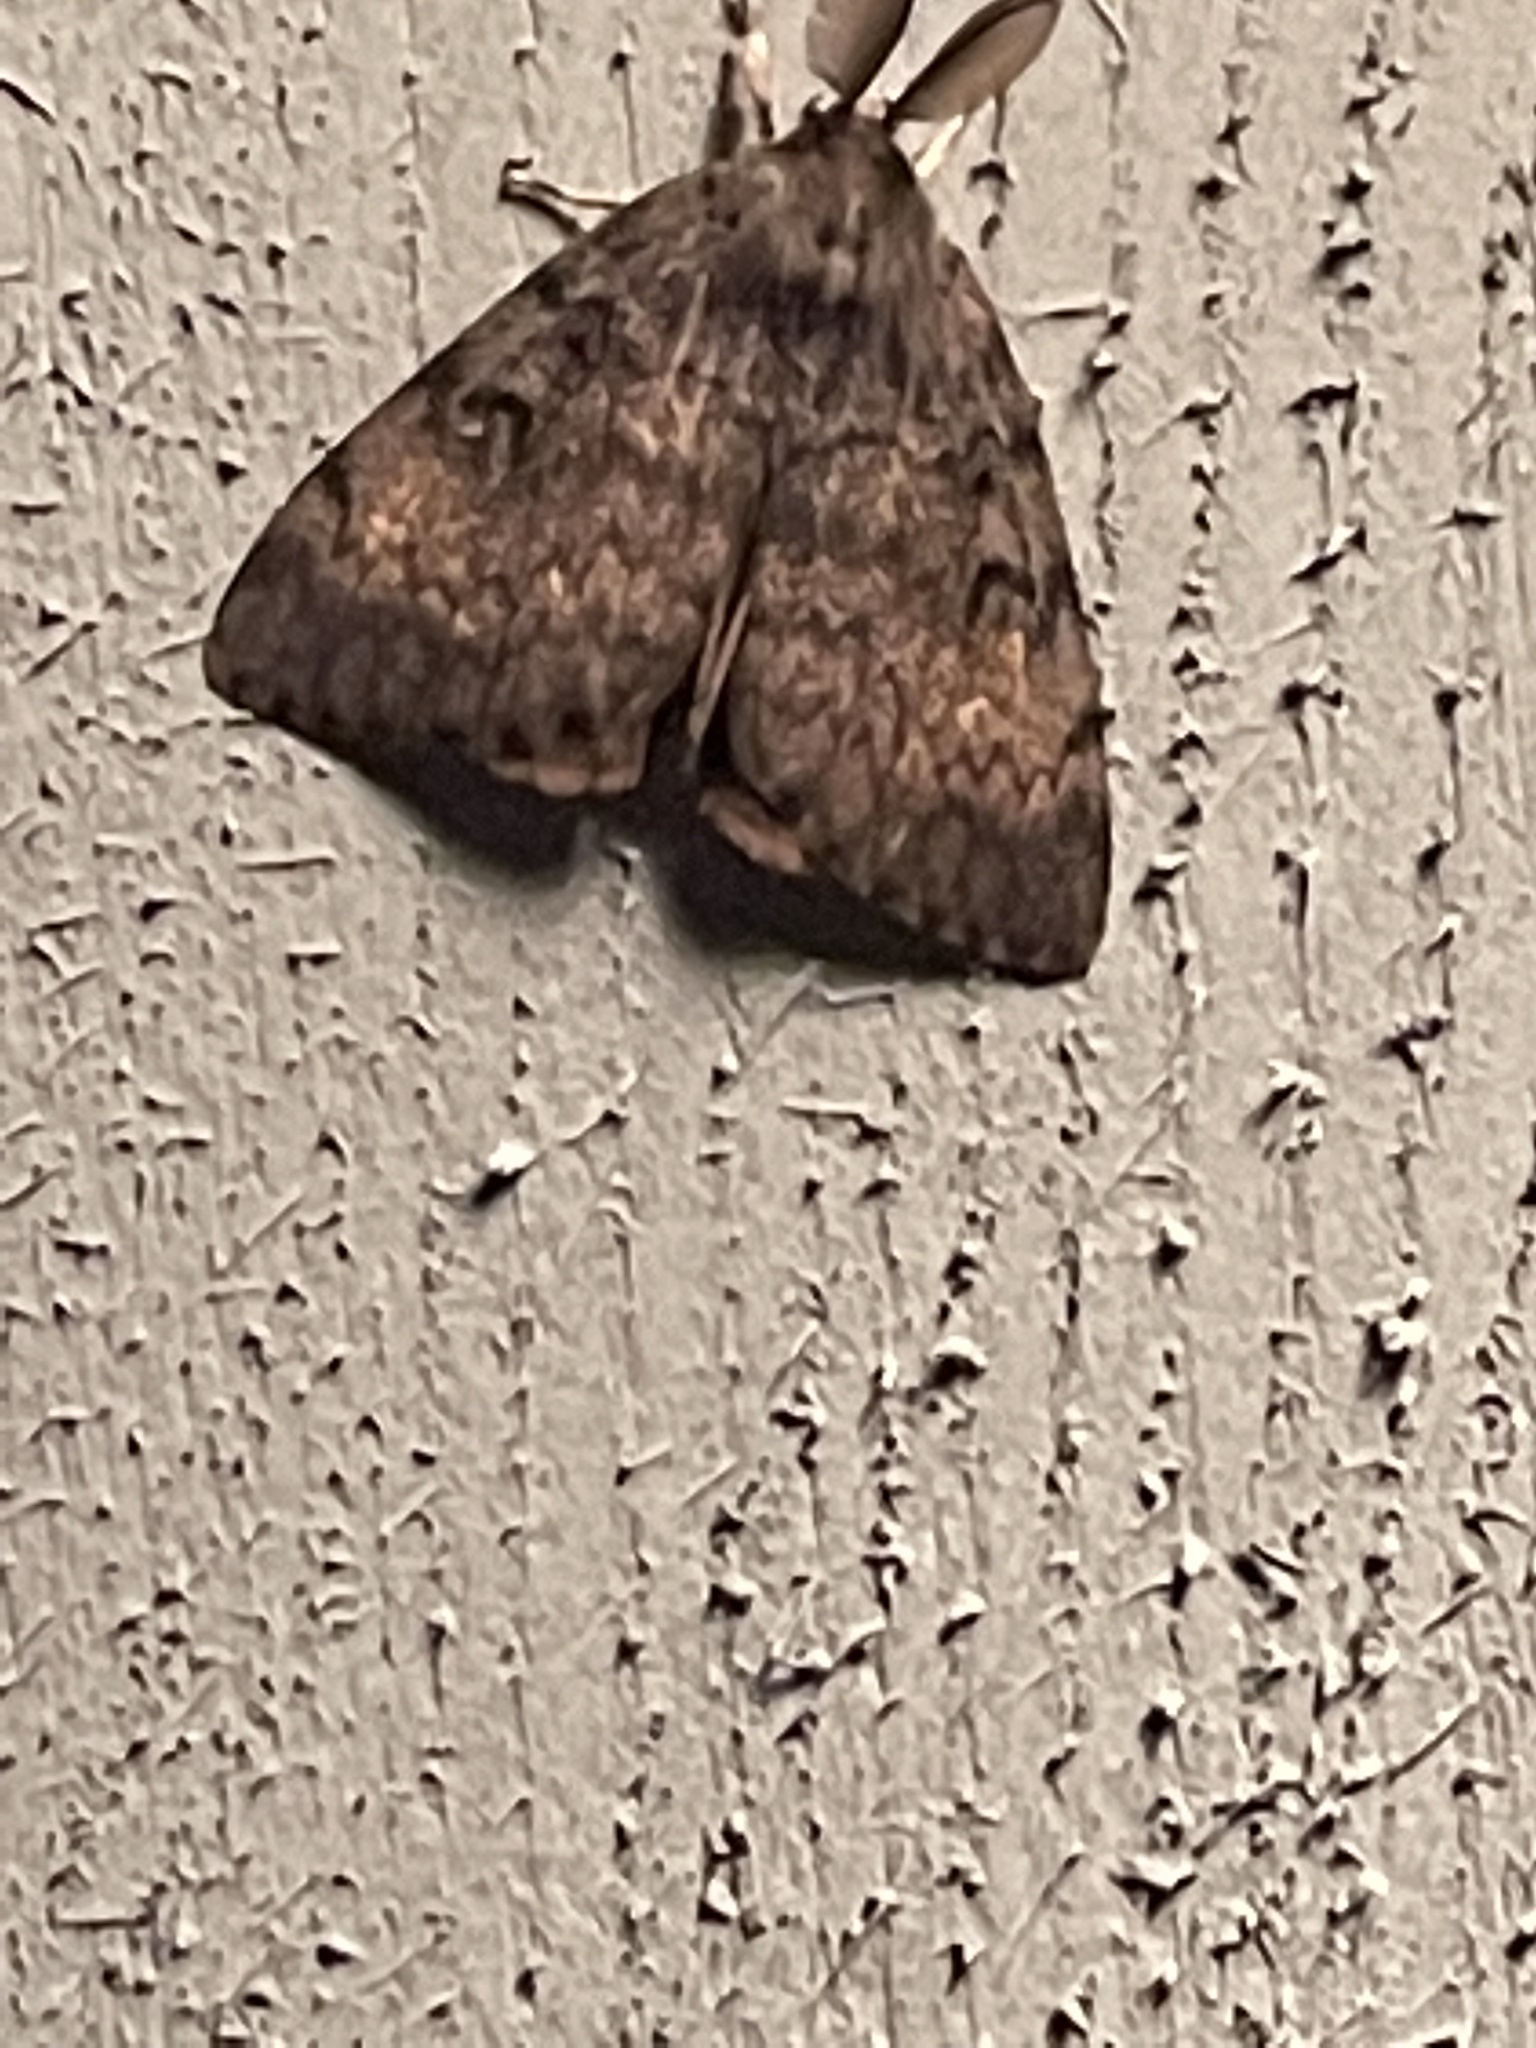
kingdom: Animalia
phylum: Arthropoda
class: Insecta
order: Lepidoptera
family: Erebidae
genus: Lymantria
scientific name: Lymantria dispar
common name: Gypsy moth
